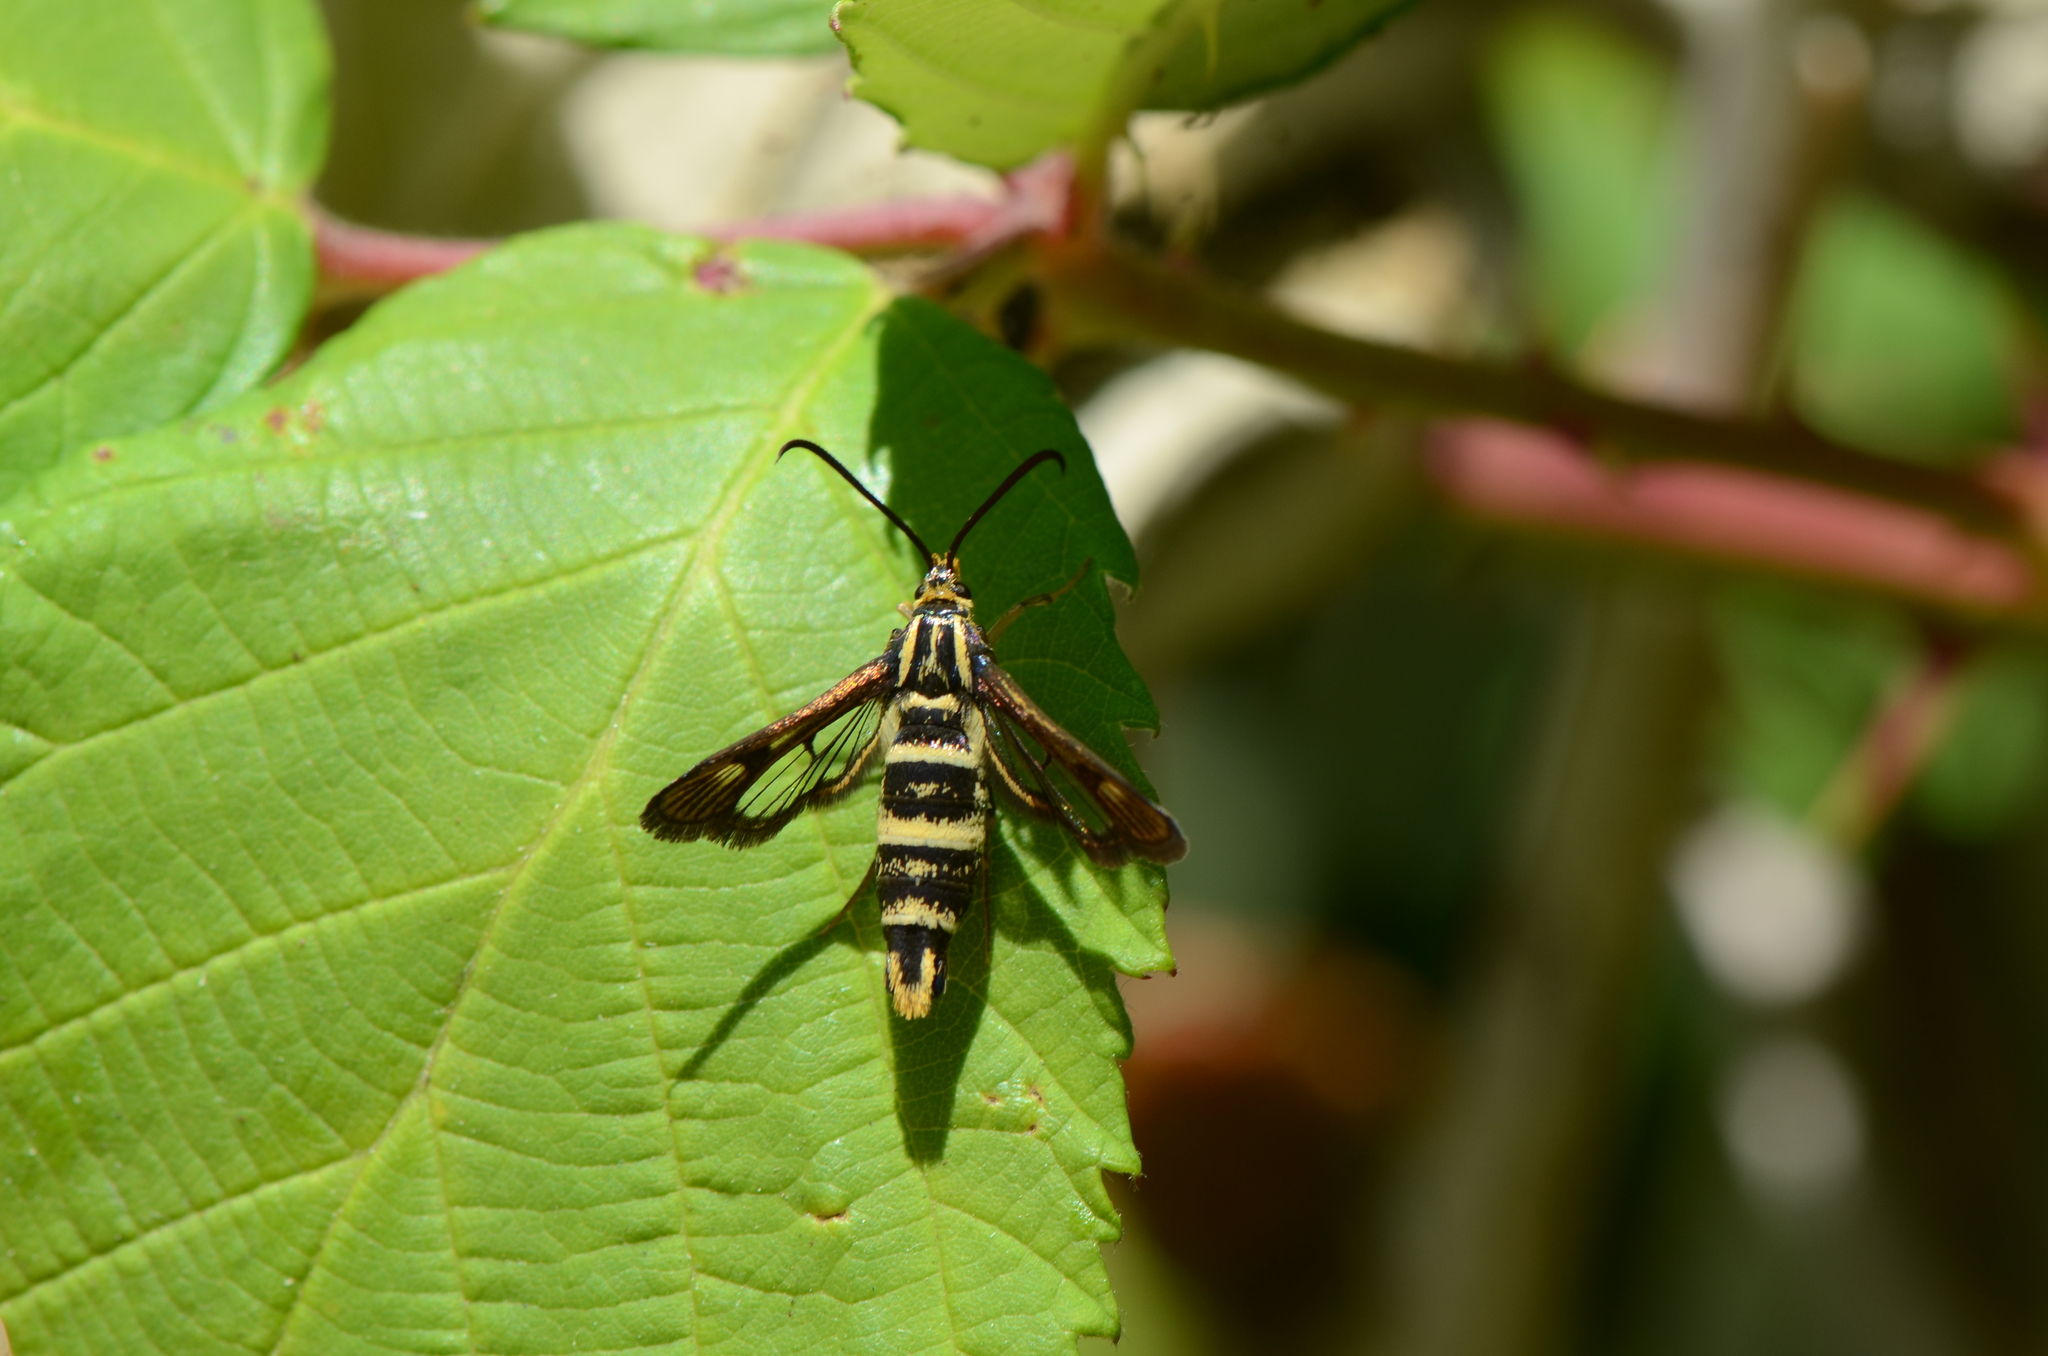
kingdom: Animalia
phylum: Arthropoda
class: Insecta
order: Lepidoptera
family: Sesiidae
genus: Synanthedon
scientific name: Synanthedon bibionipennis
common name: Strawberry crown moth
